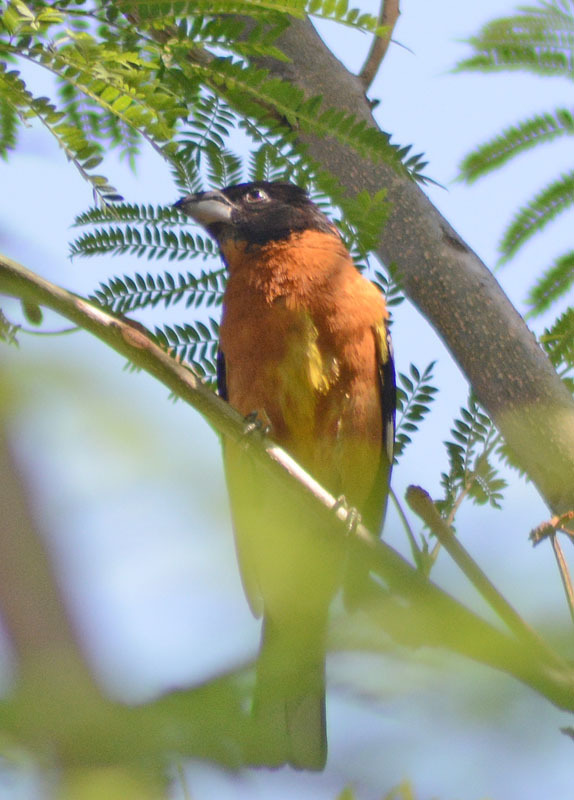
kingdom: Animalia
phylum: Chordata
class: Aves
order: Passeriformes
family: Cardinalidae
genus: Pheucticus
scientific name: Pheucticus melanocephalus
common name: Black-headed grosbeak
